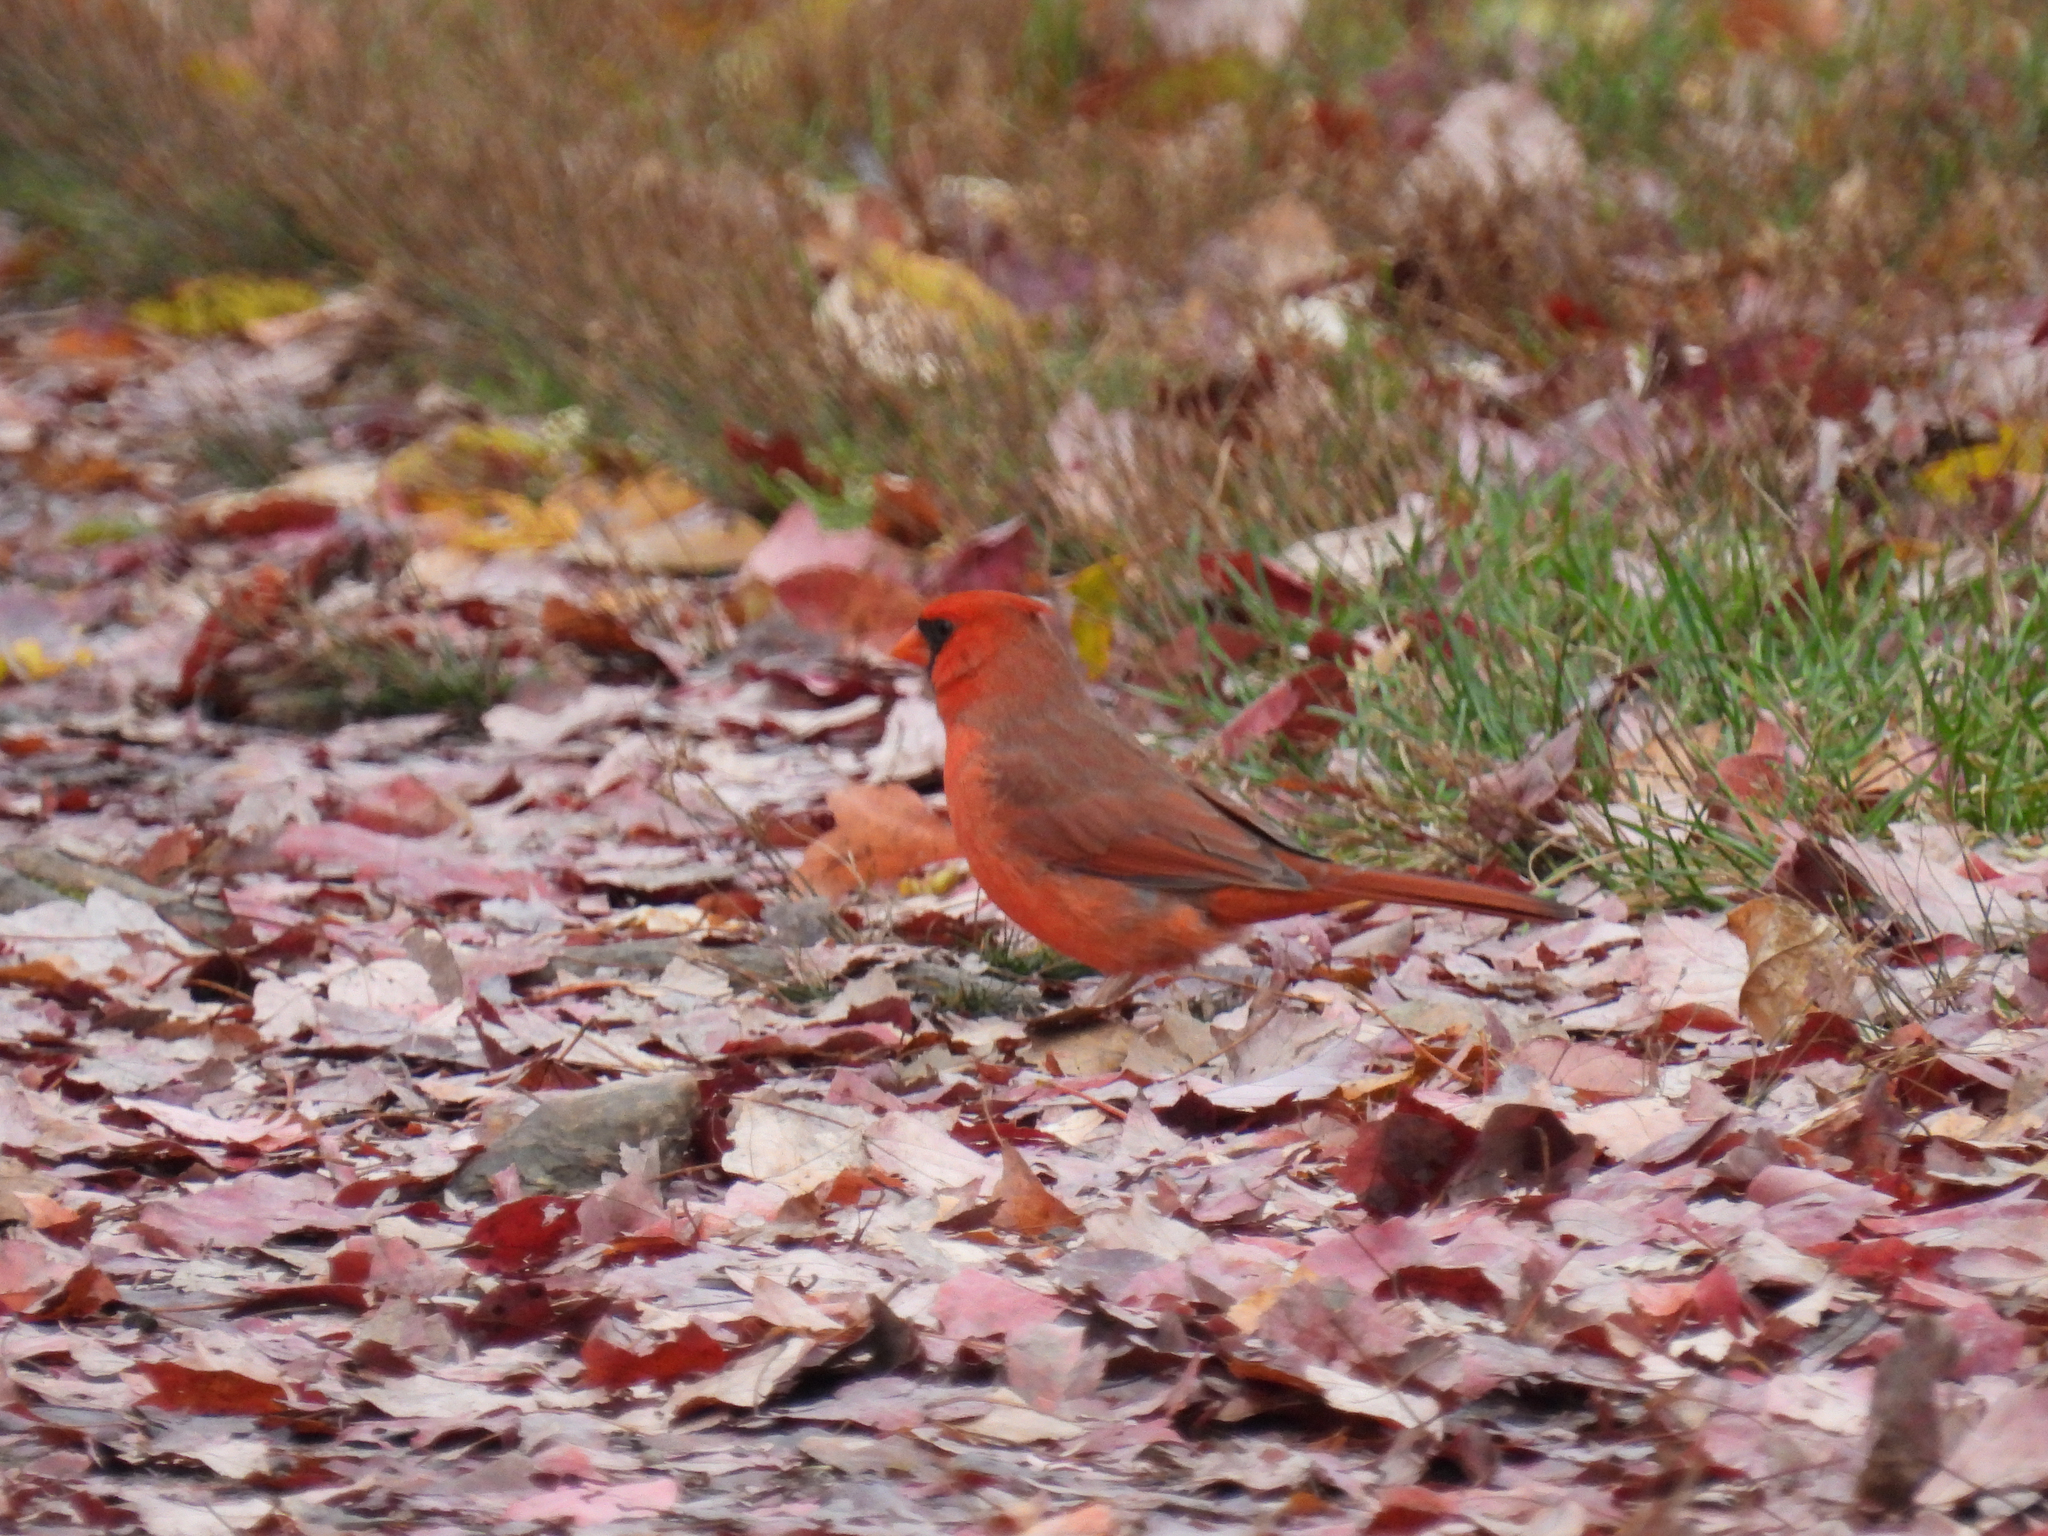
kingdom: Animalia
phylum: Chordata
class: Aves
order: Passeriformes
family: Cardinalidae
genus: Cardinalis
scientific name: Cardinalis cardinalis
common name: Northern cardinal
